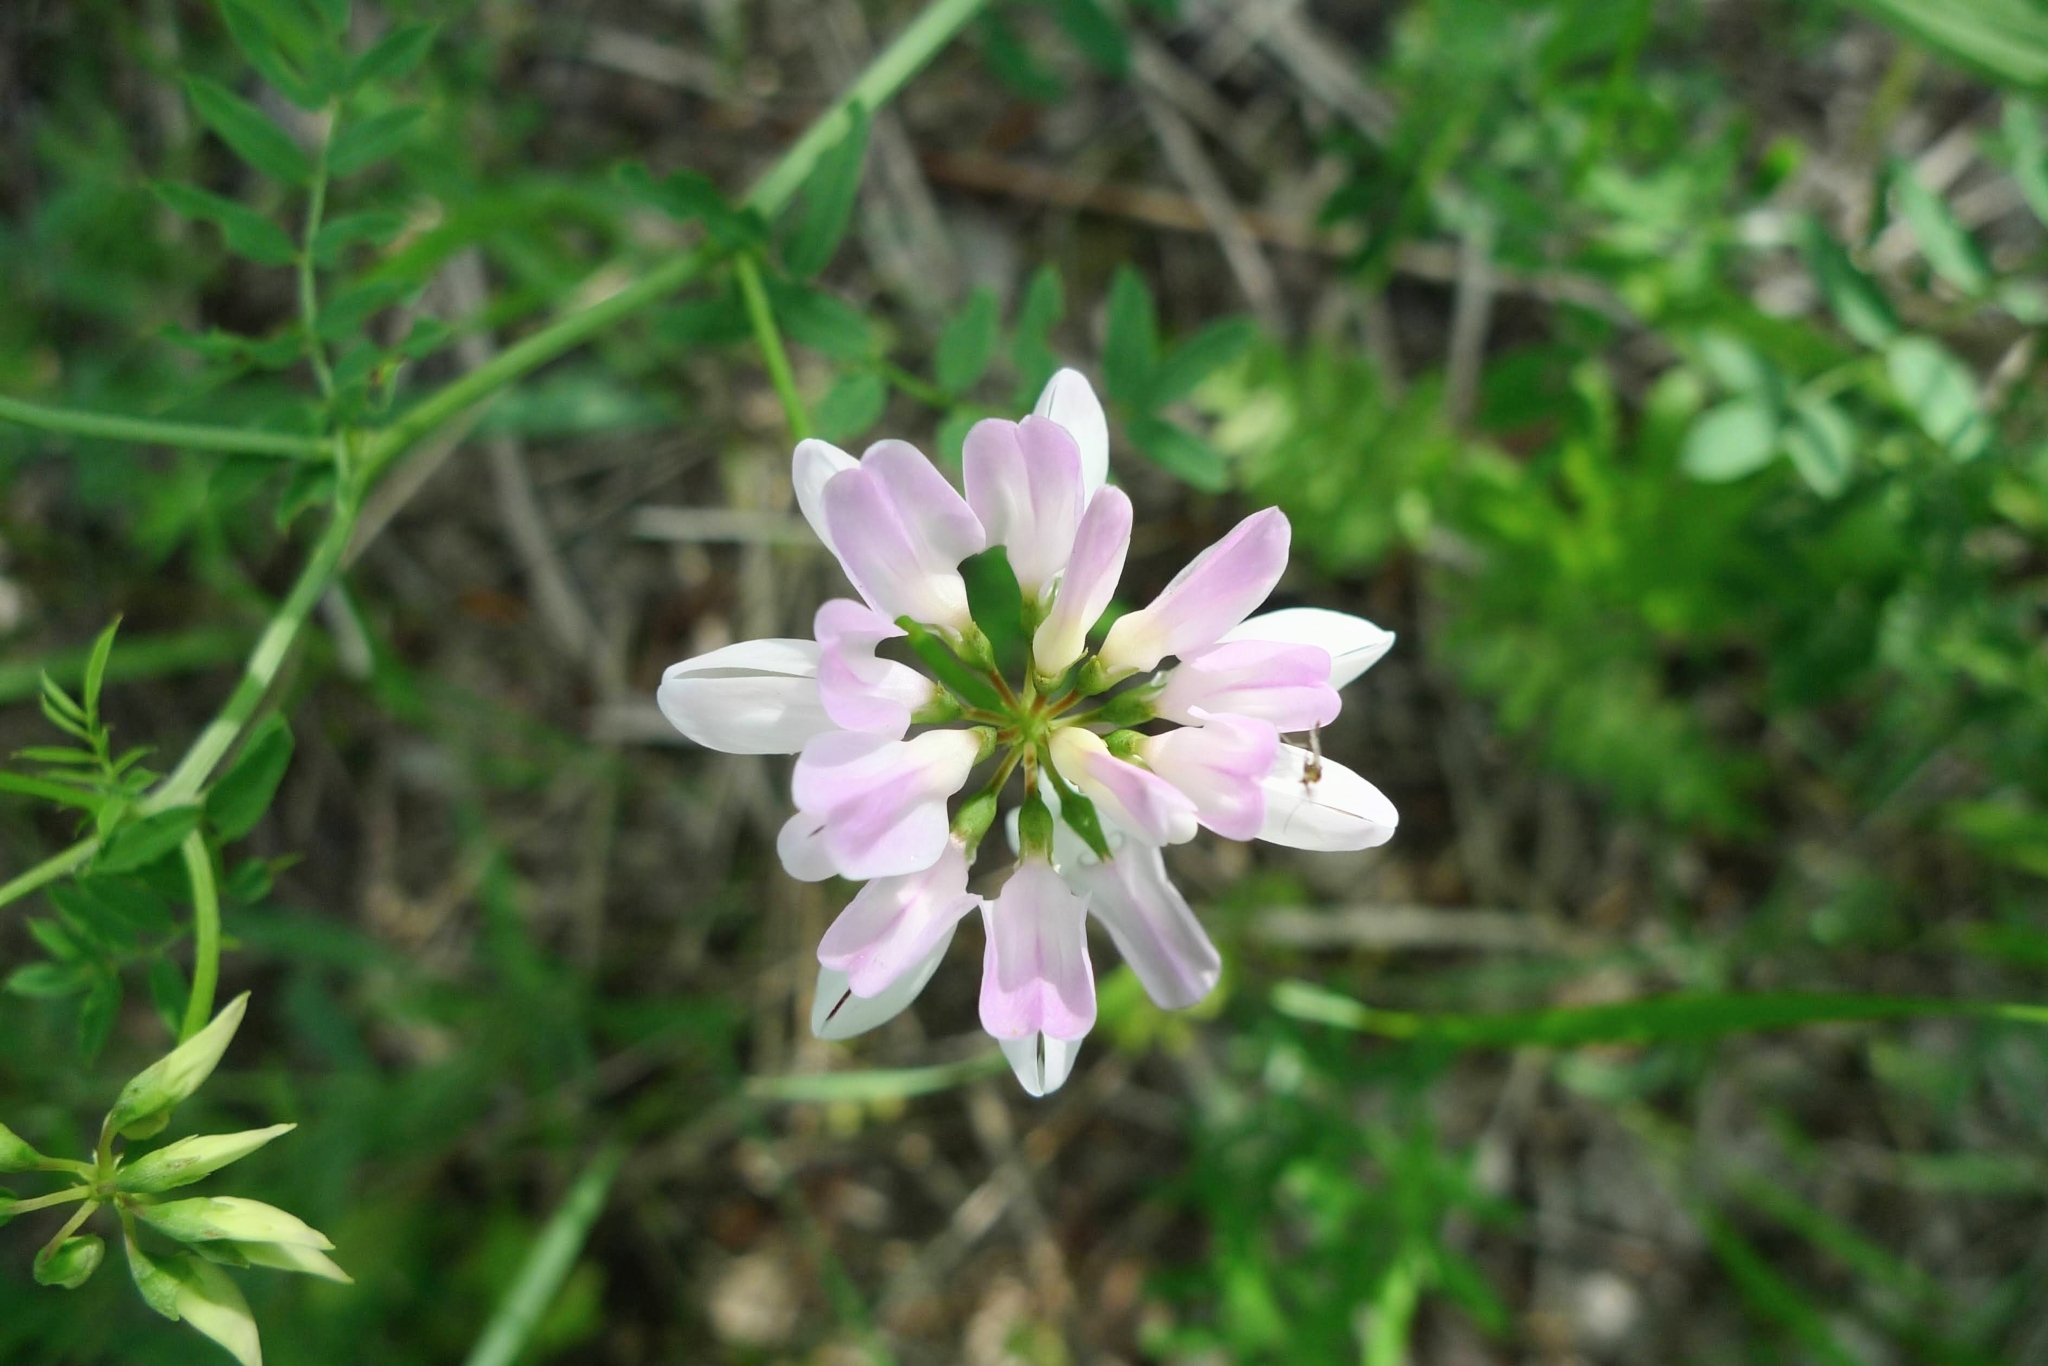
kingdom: Plantae
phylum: Tracheophyta
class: Magnoliopsida
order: Fabales
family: Fabaceae
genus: Coronilla
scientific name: Coronilla varia
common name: Crownvetch
